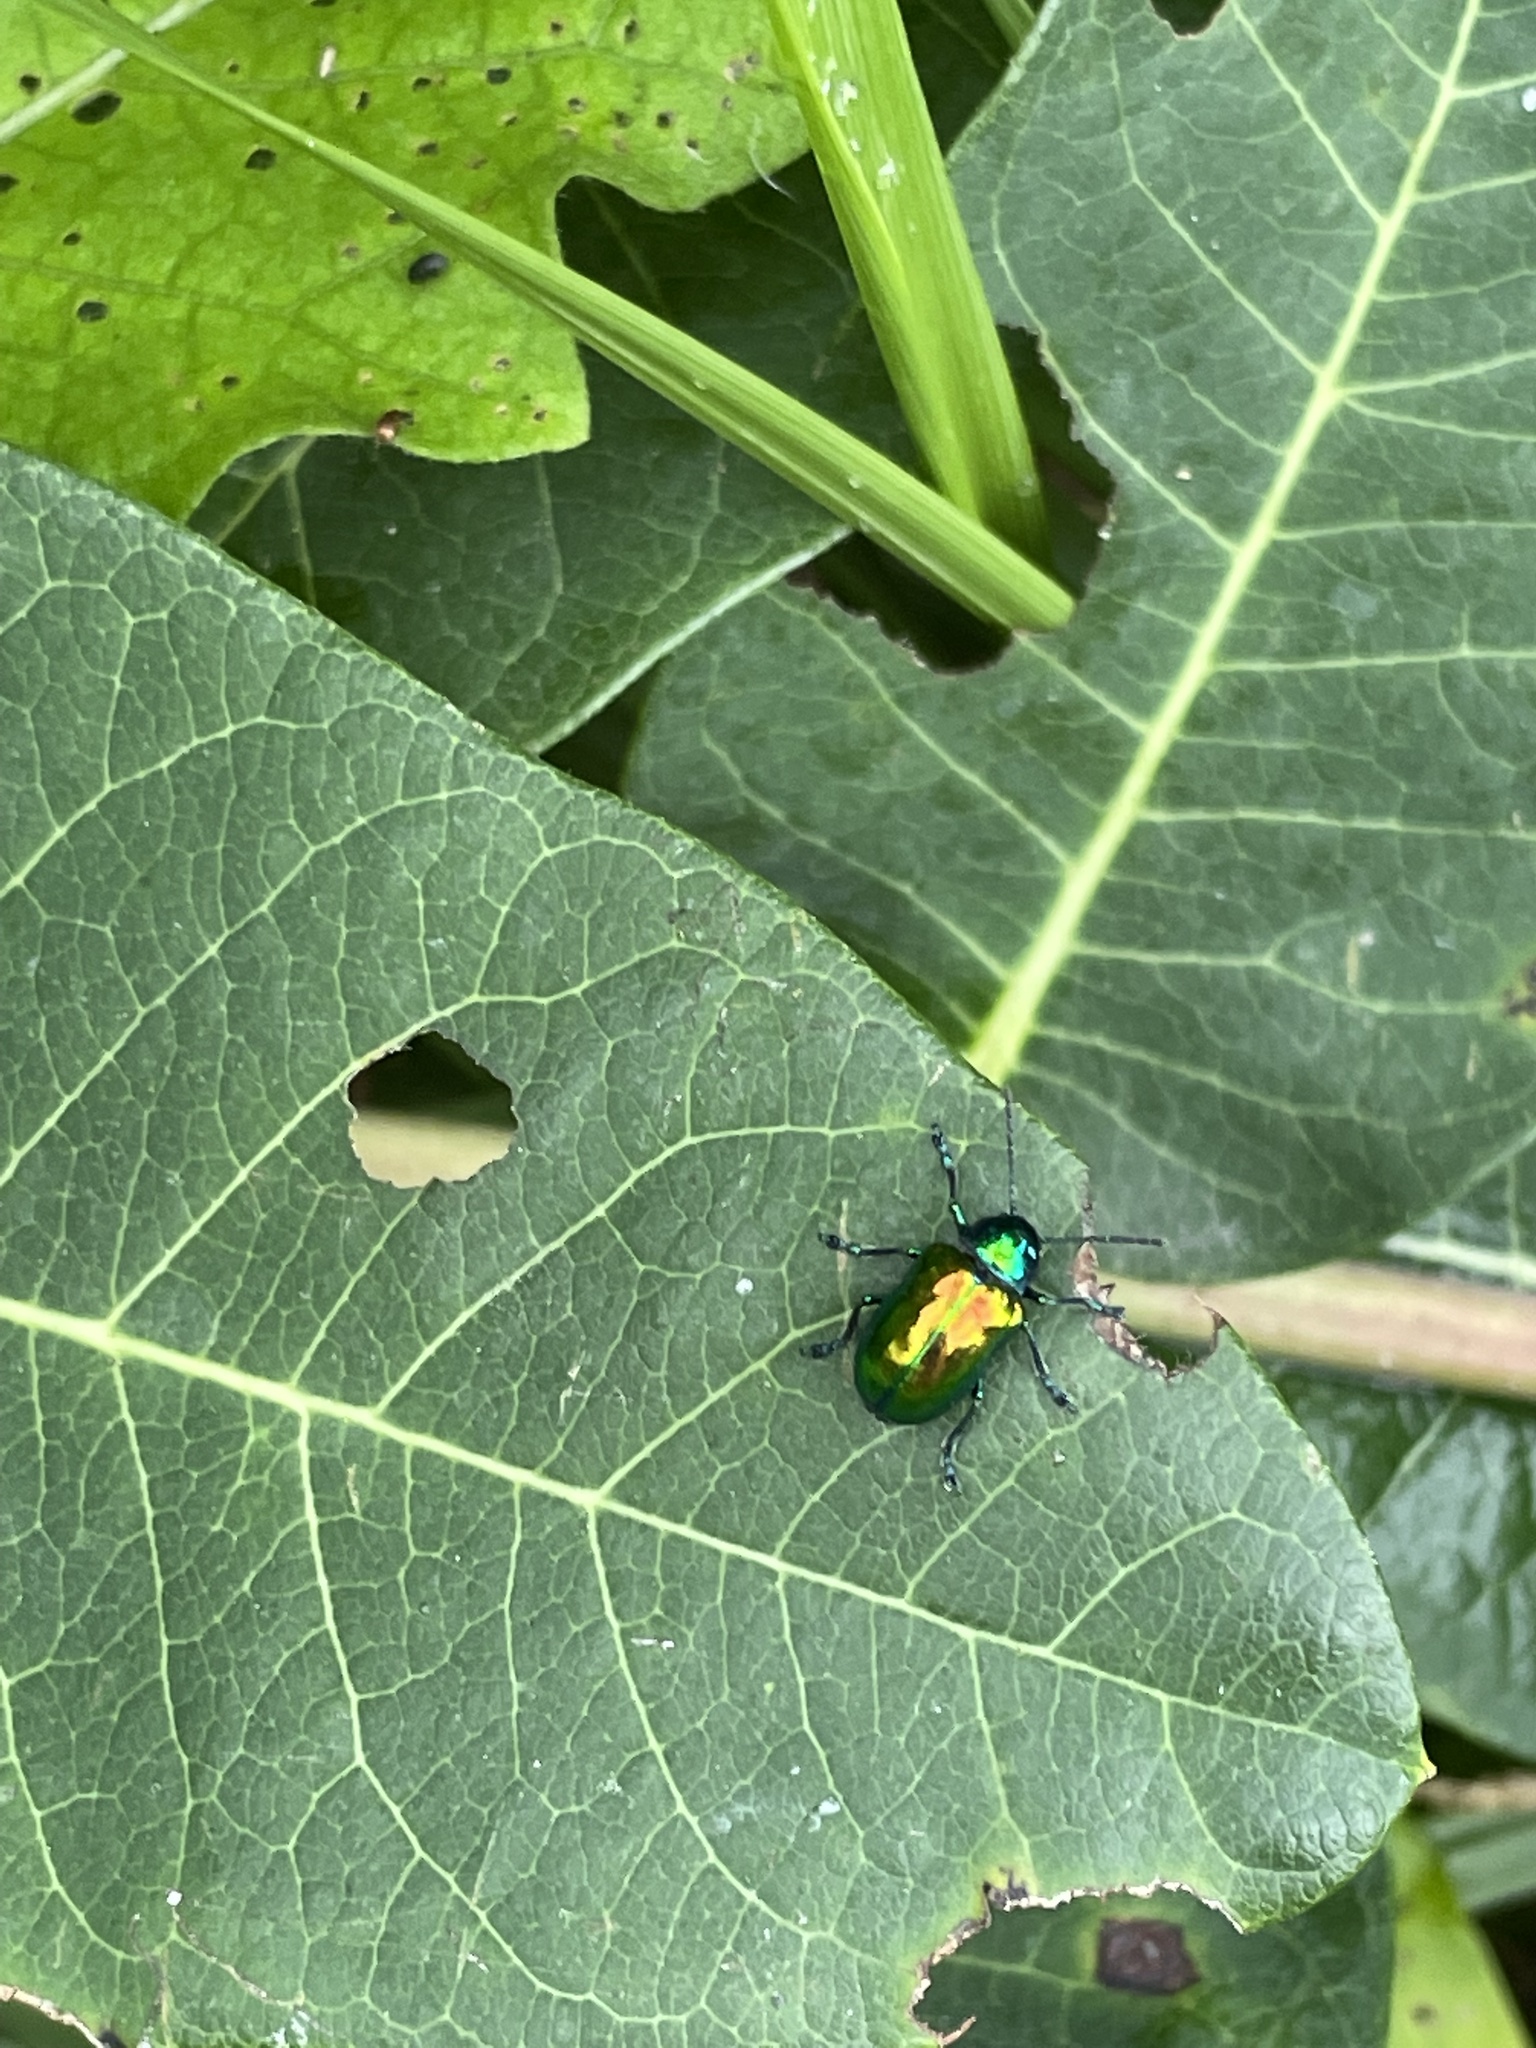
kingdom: Animalia
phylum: Arthropoda
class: Insecta
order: Coleoptera
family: Chrysomelidae
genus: Chrysochus
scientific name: Chrysochus auratus
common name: Dogbane leaf beetle
